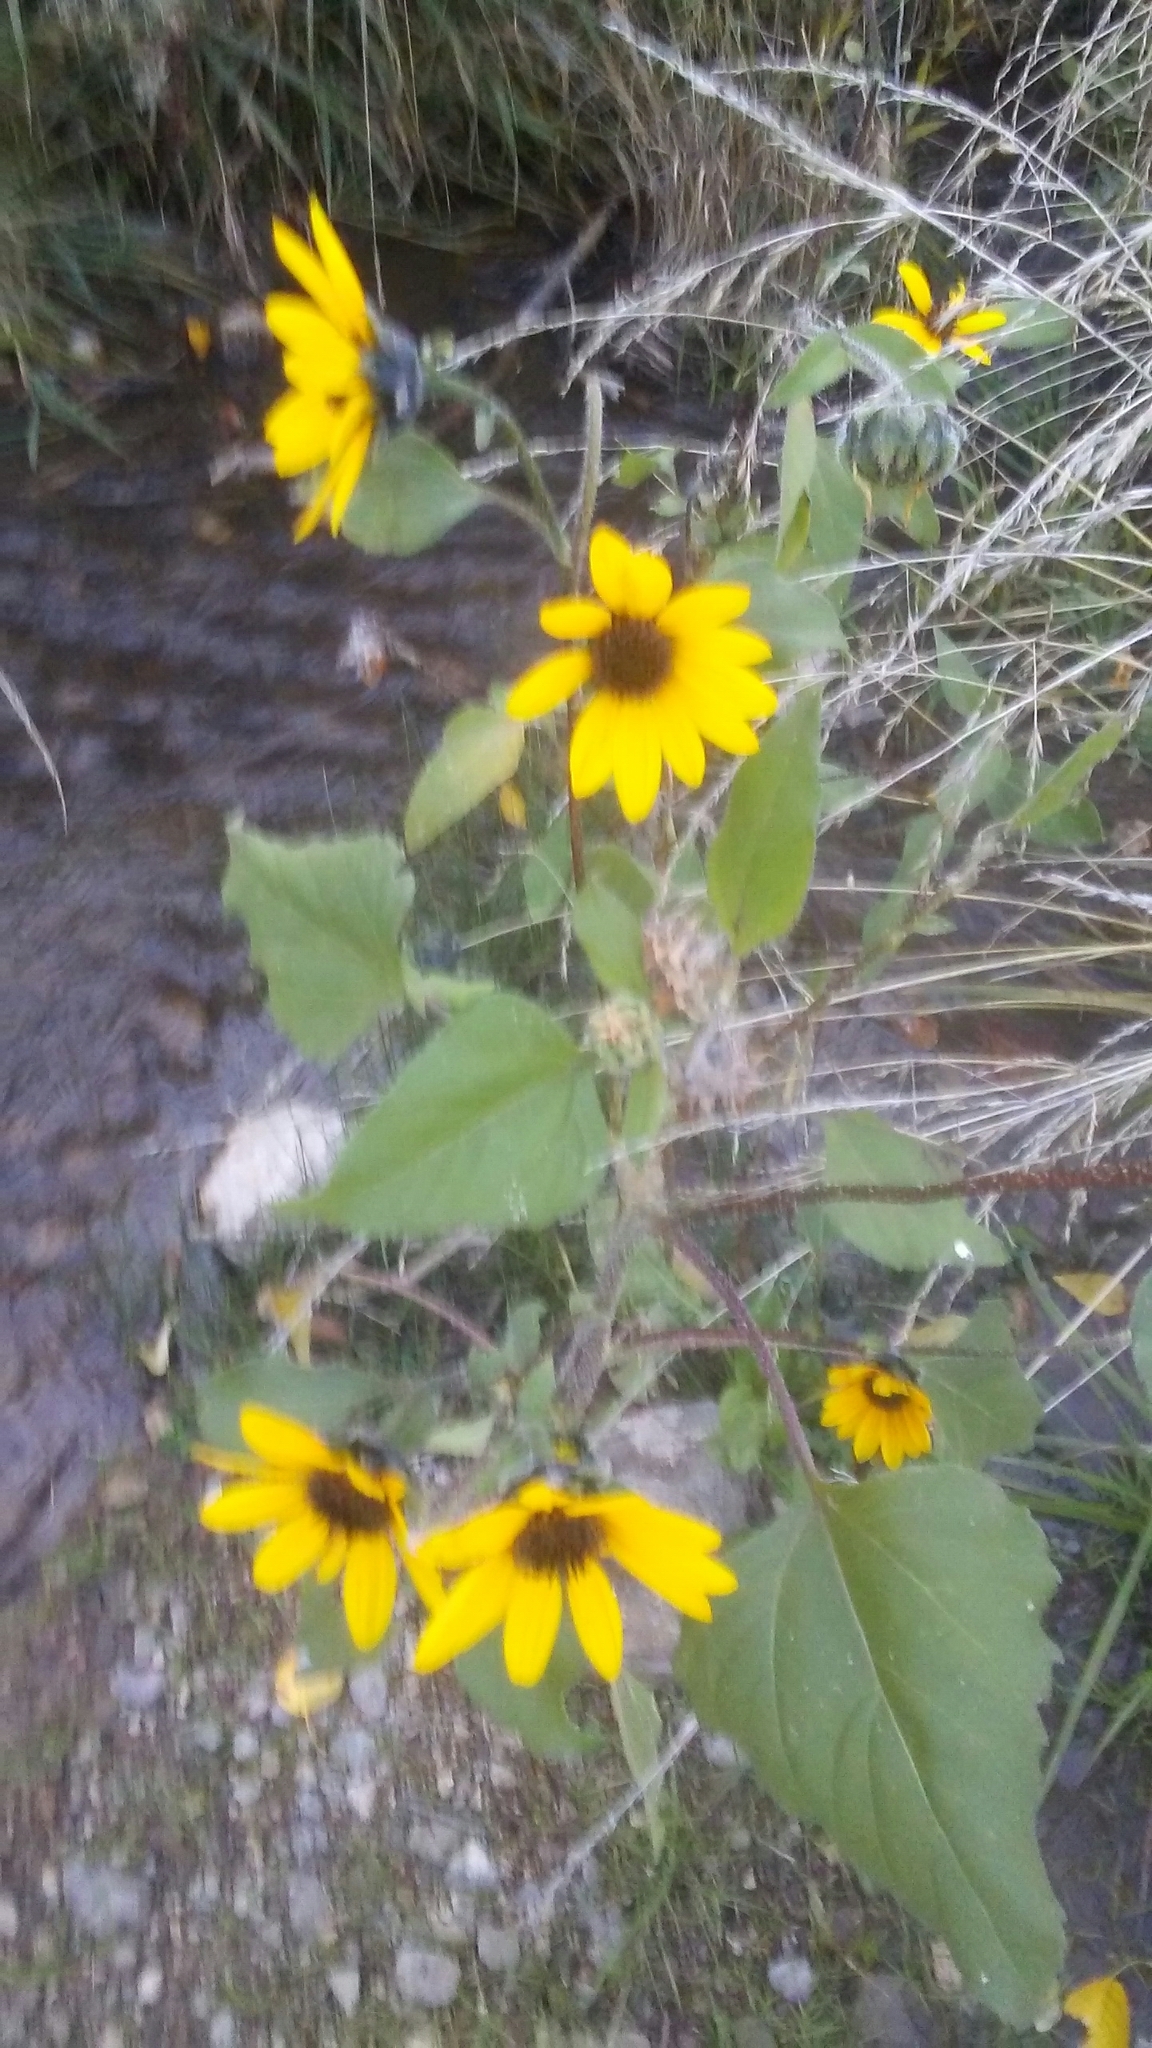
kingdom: Plantae
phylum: Tracheophyta
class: Magnoliopsida
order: Asterales
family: Asteraceae
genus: Helianthus
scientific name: Helianthus annuus
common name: Sunflower
